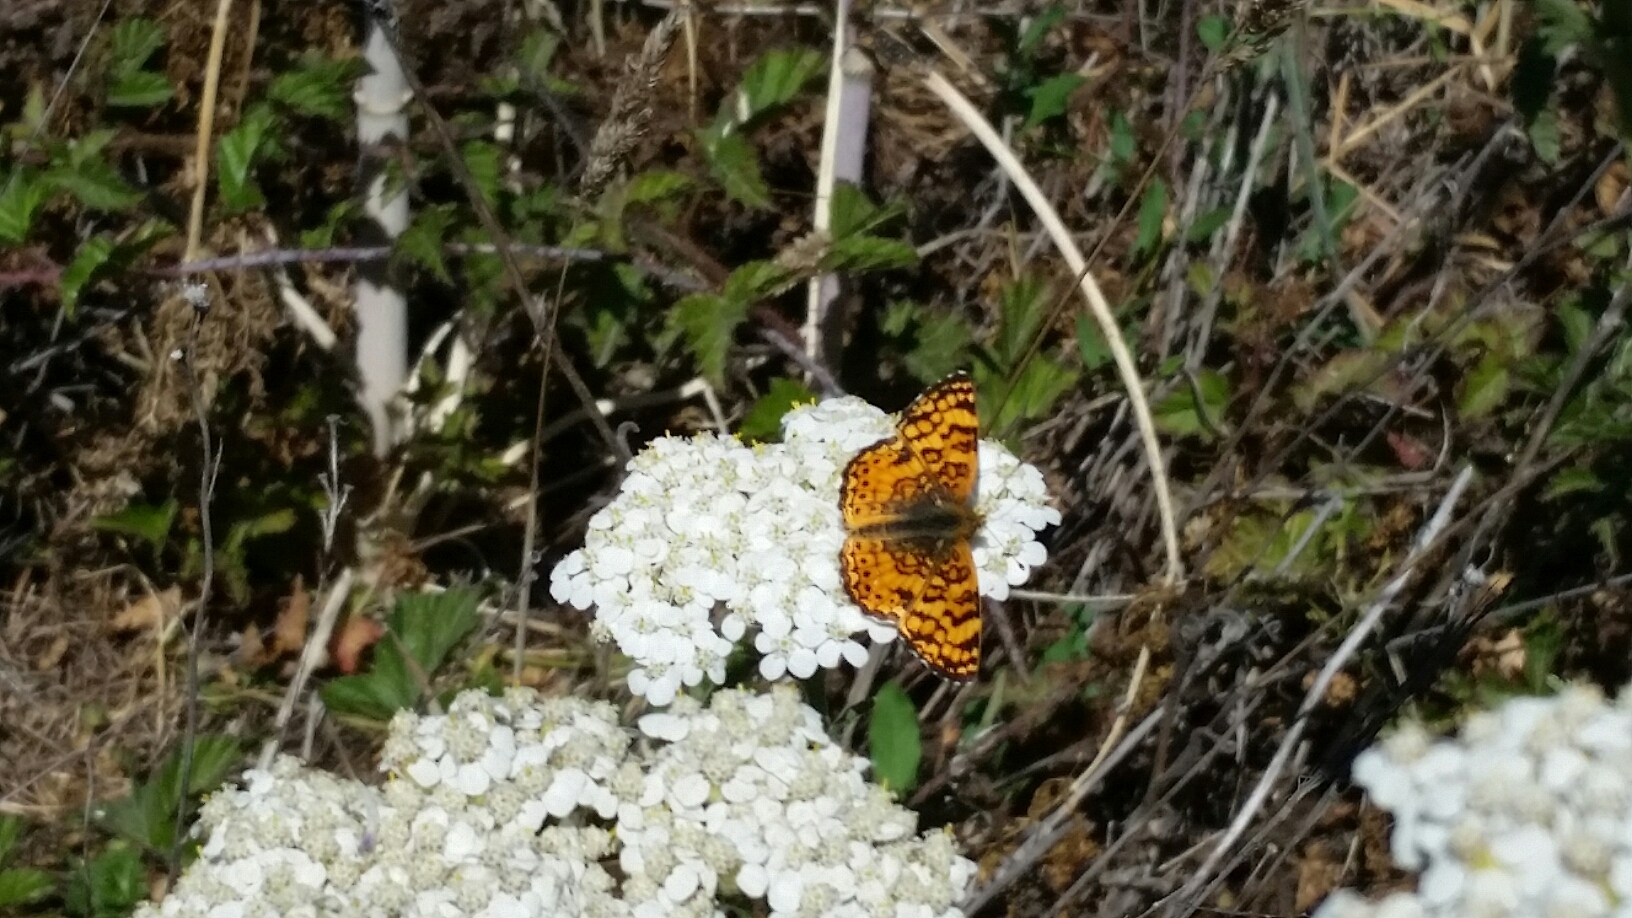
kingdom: Animalia
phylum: Arthropoda
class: Insecta
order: Lepidoptera
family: Nymphalidae
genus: Eresia
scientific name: Eresia aveyrona
